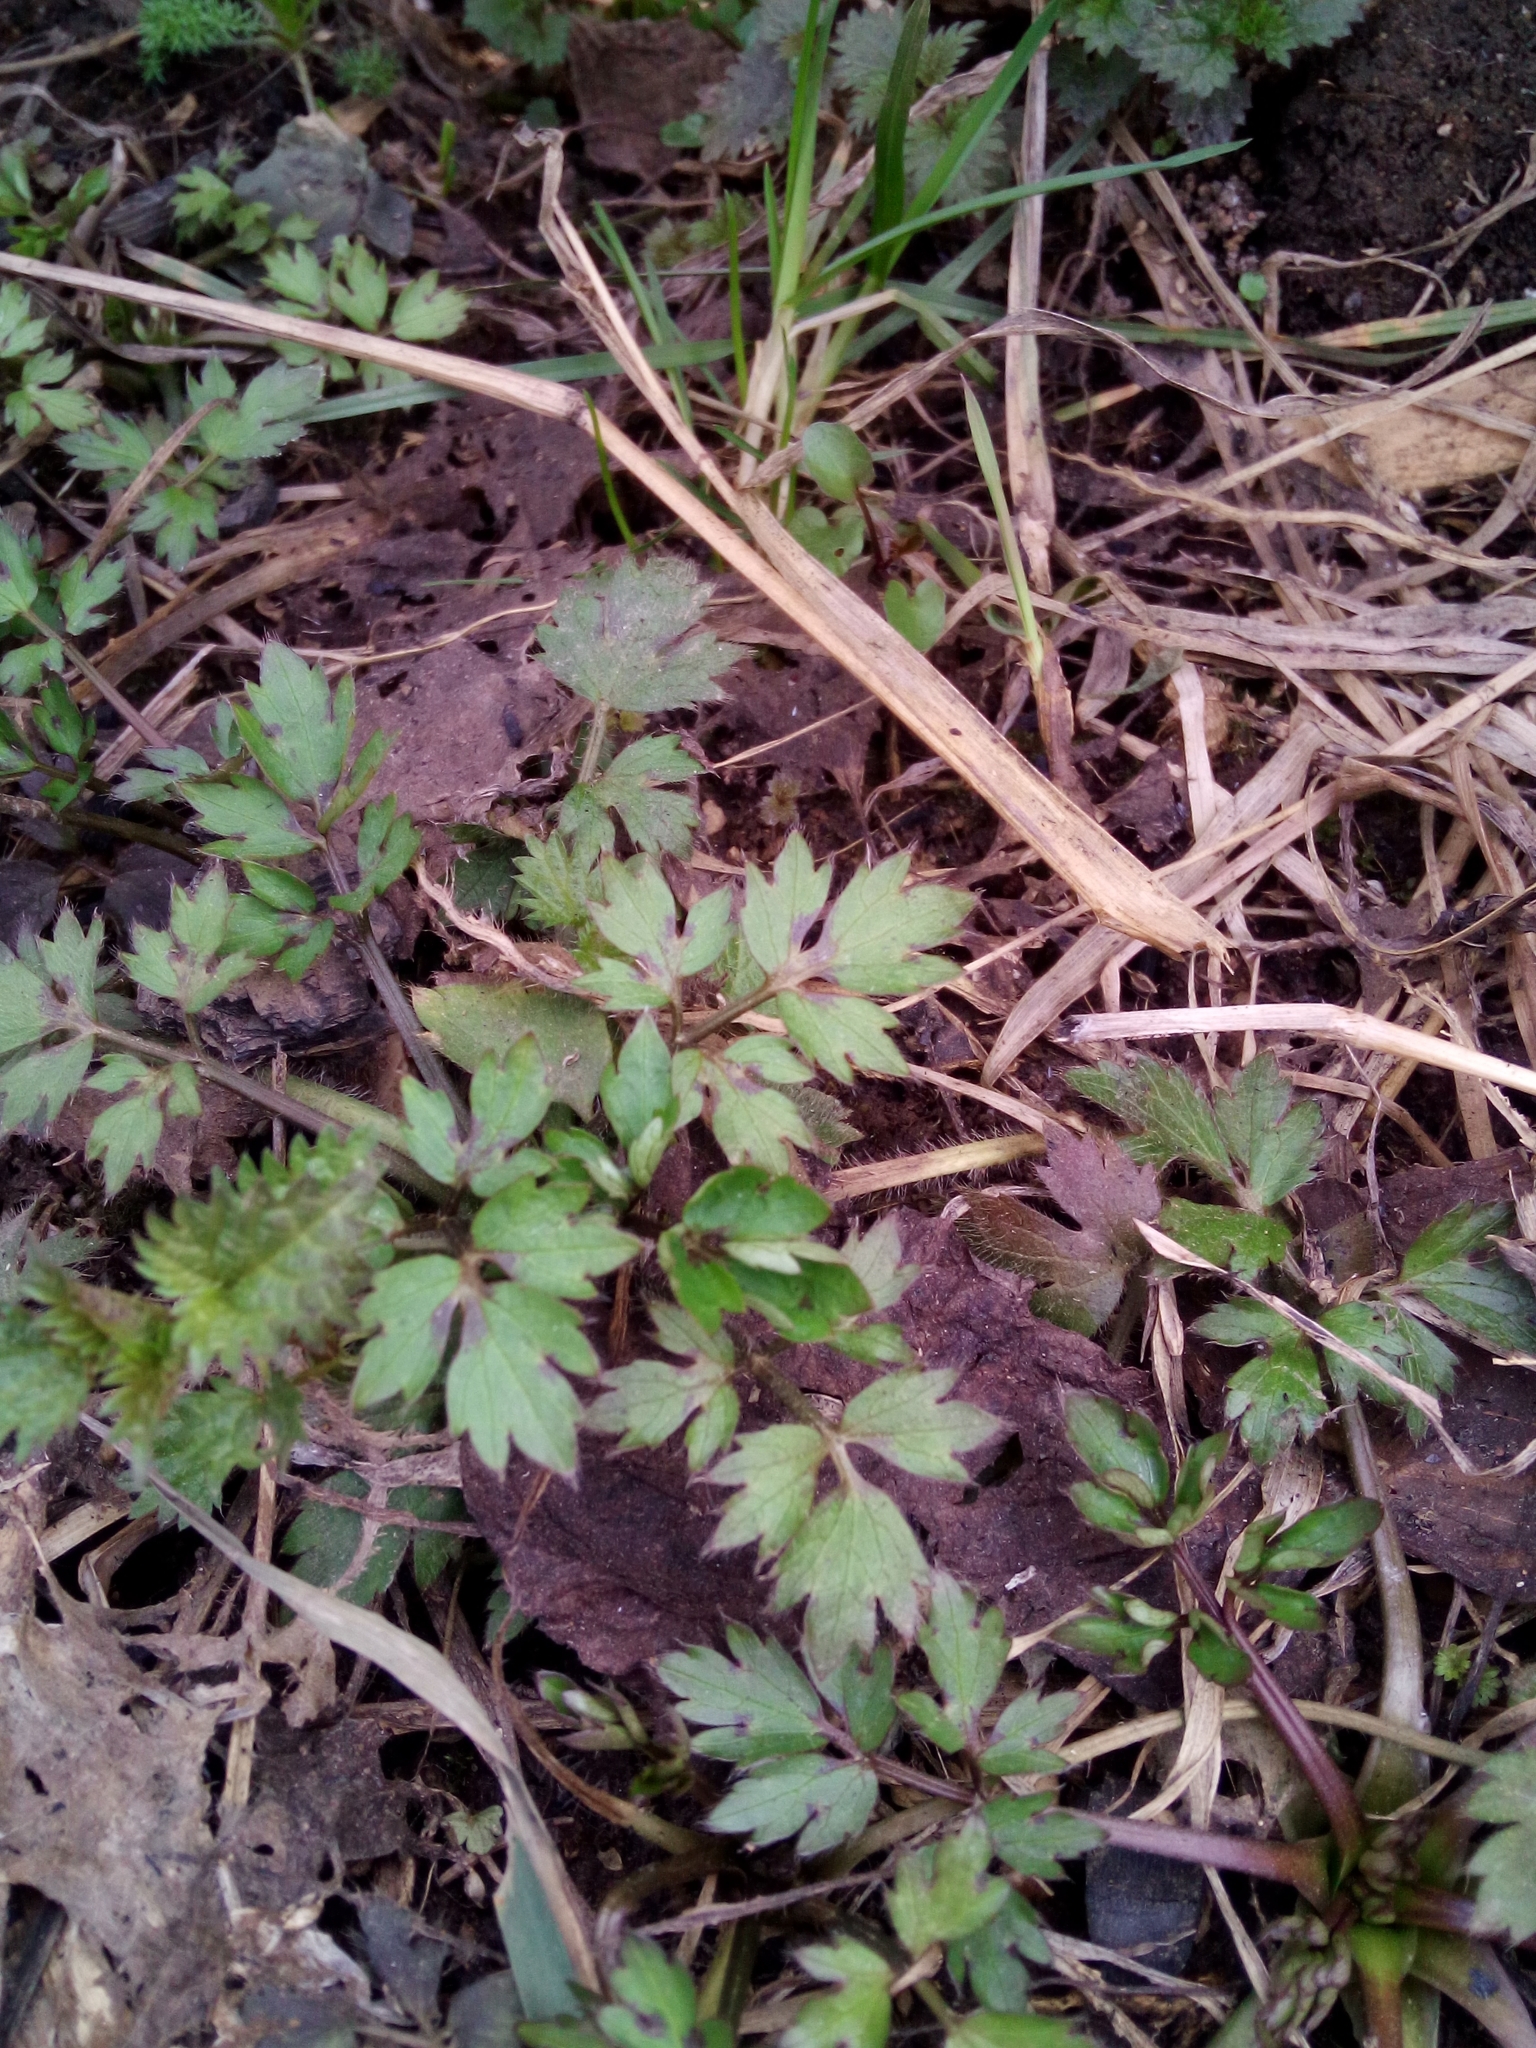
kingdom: Plantae
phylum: Tracheophyta
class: Magnoliopsida
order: Ranunculales
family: Ranunculaceae
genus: Ranunculus
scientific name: Ranunculus repens
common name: Creeping buttercup
